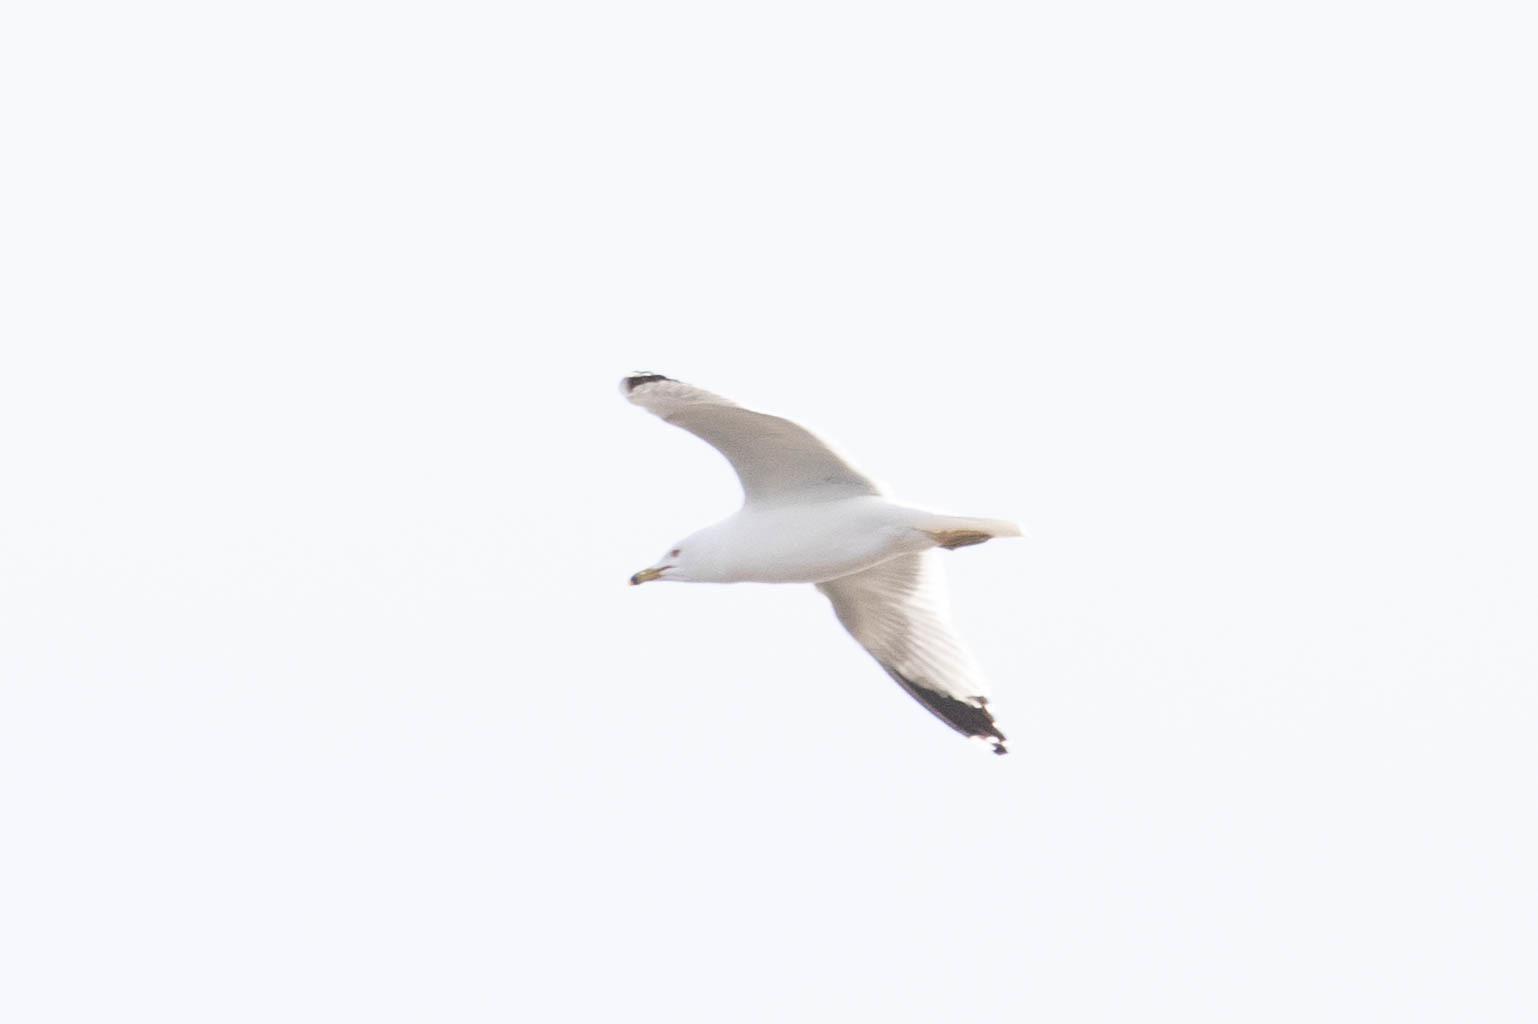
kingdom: Animalia
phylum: Chordata
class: Aves
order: Charadriiformes
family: Laridae
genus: Larus
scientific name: Larus delawarensis
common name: Ring-billed gull
